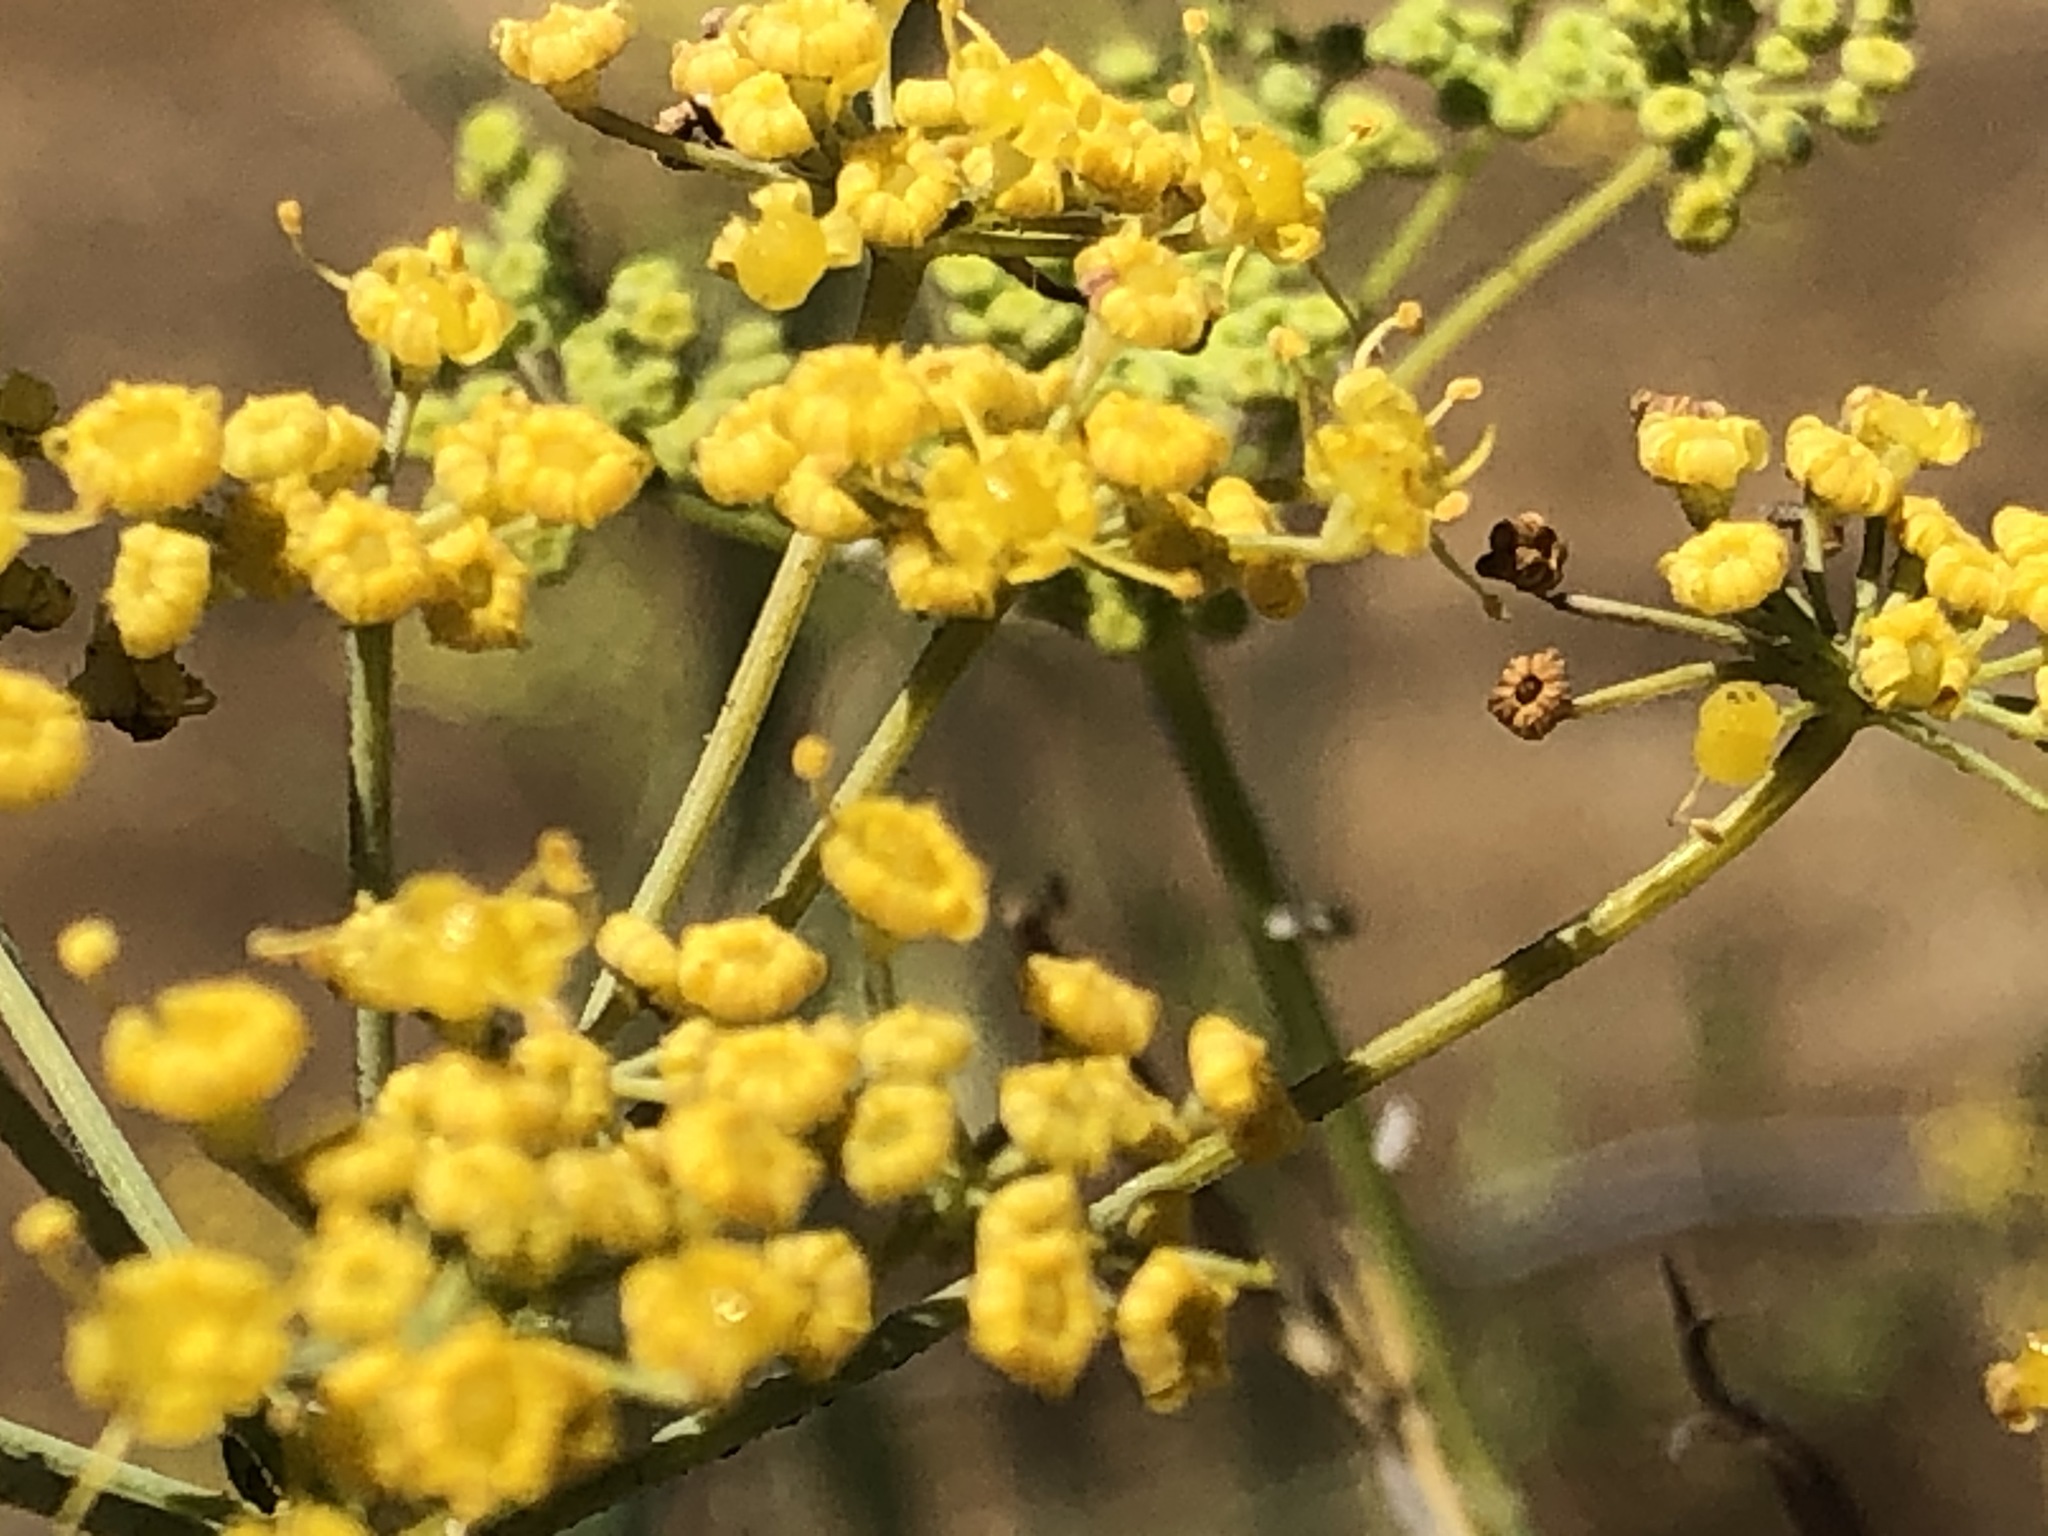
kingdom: Plantae
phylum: Tracheophyta
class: Magnoliopsida
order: Apiales
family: Apiaceae
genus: Foeniculum
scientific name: Foeniculum vulgare
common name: Fennel
